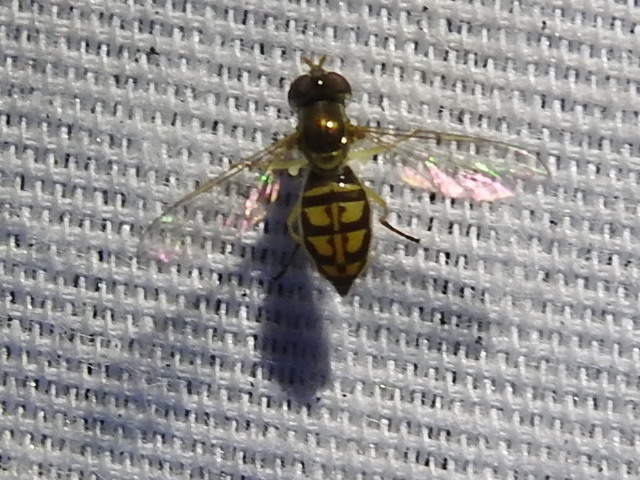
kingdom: Animalia
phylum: Arthropoda
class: Insecta
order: Diptera
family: Syrphidae
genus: Toxomerus
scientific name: Toxomerus marginatus
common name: Syrphid fly
